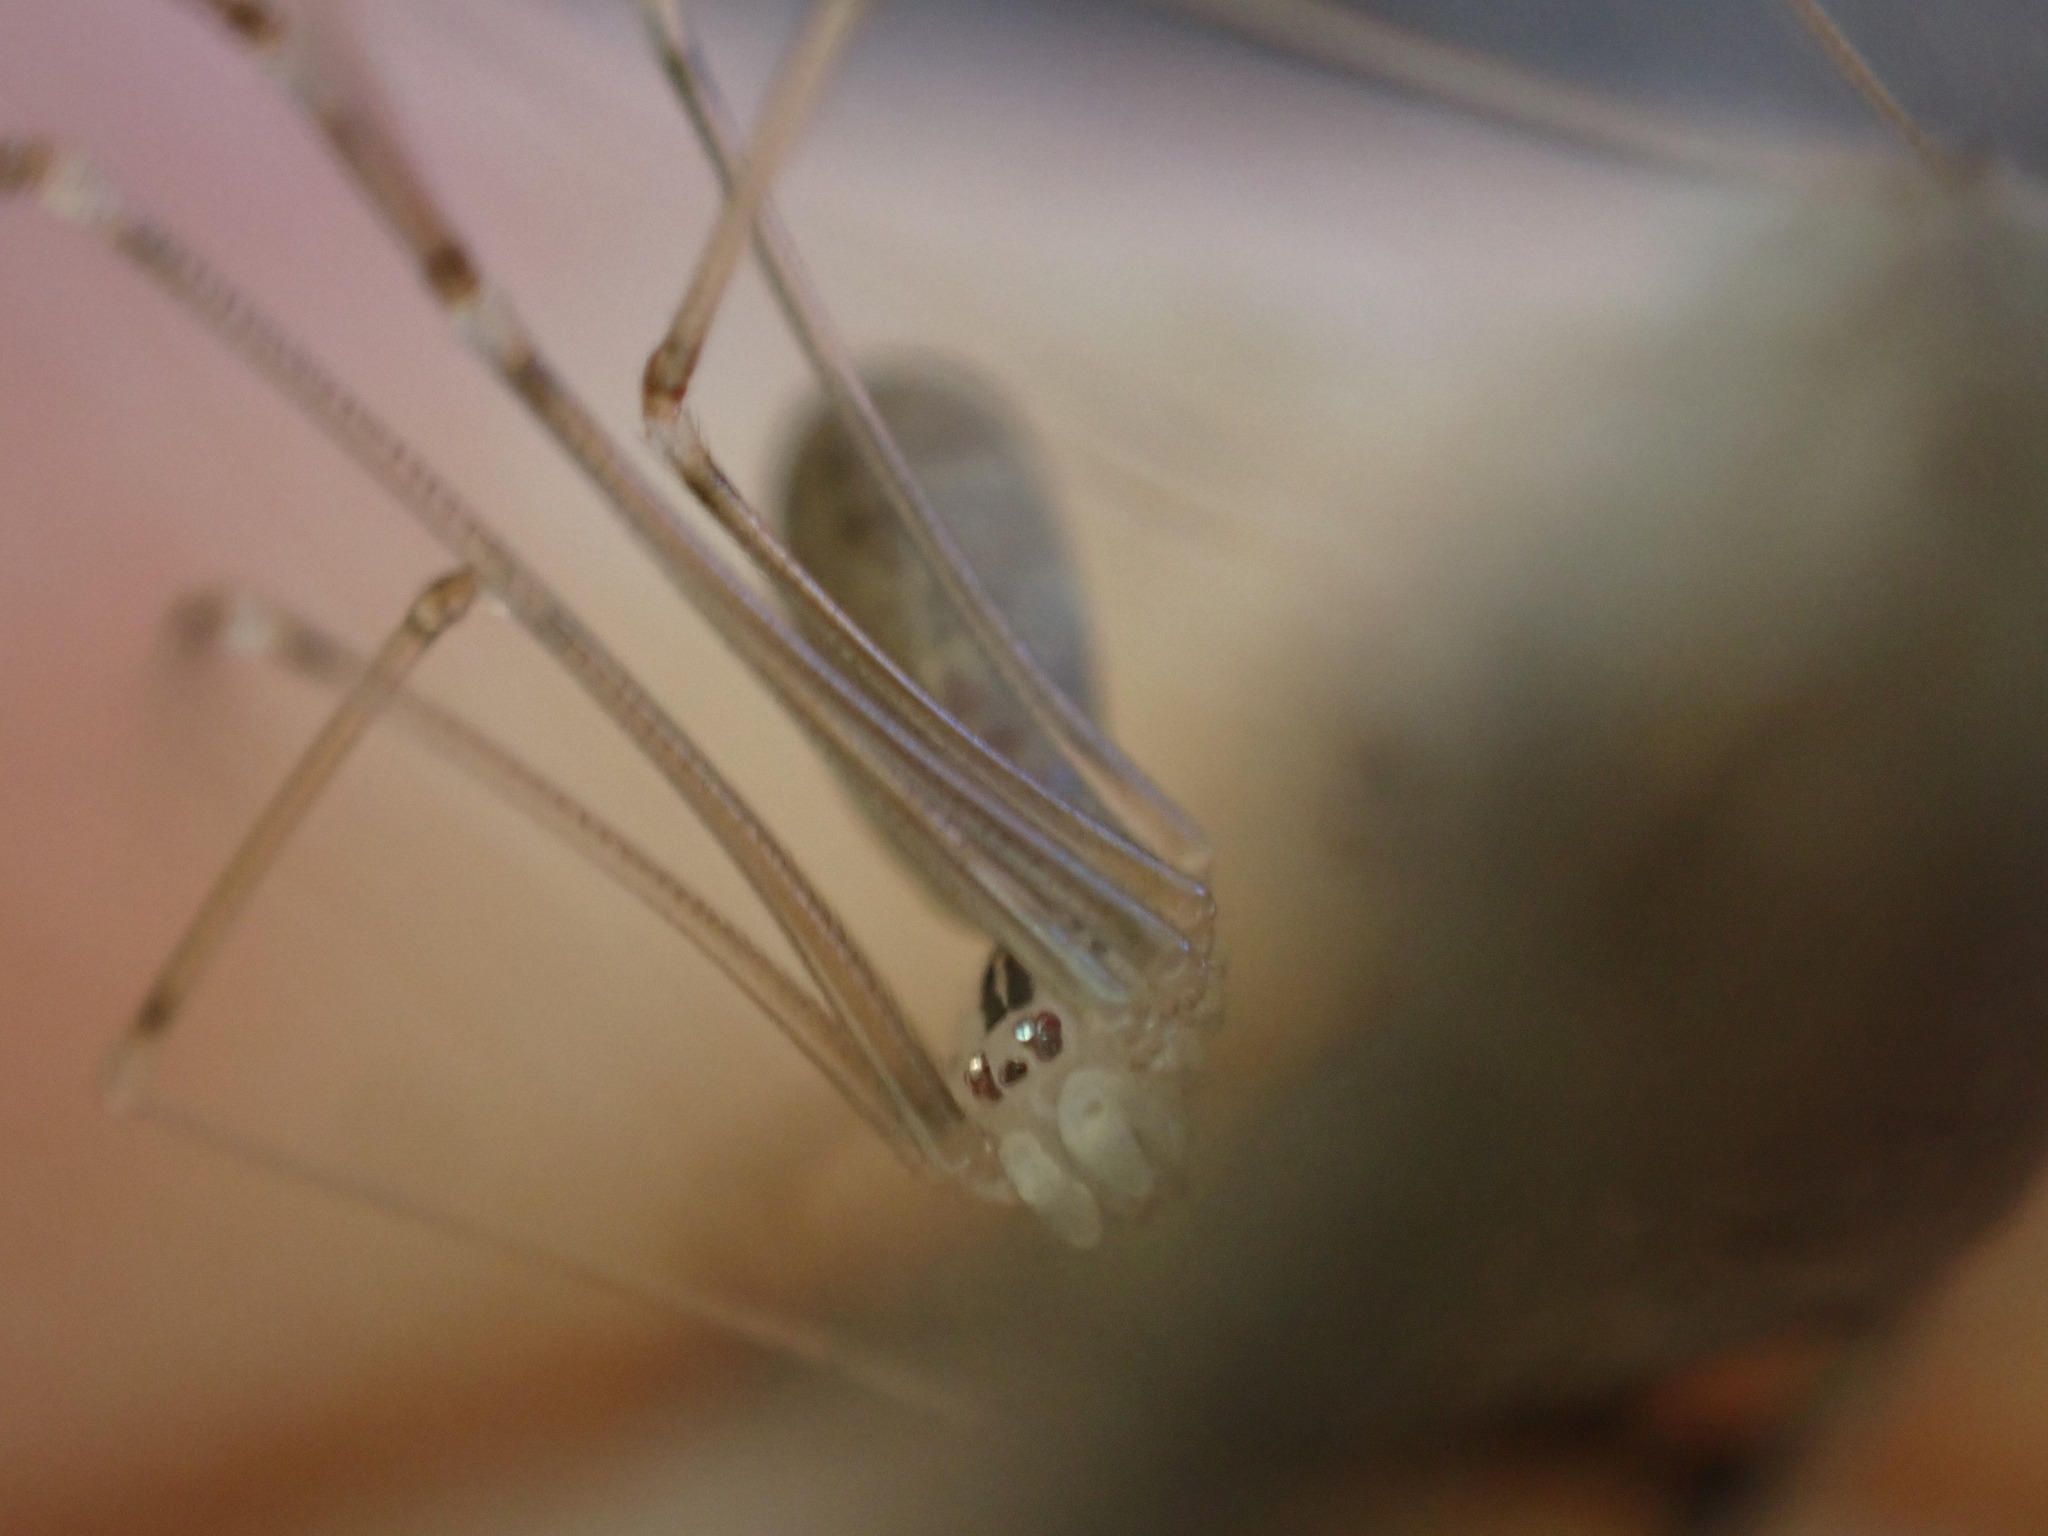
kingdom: Animalia
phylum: Arthropoda
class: Arachnida
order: Araneae
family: Pholcidae
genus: Pholcus
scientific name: Pholcus opilionoides
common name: Daddylongleg spider
